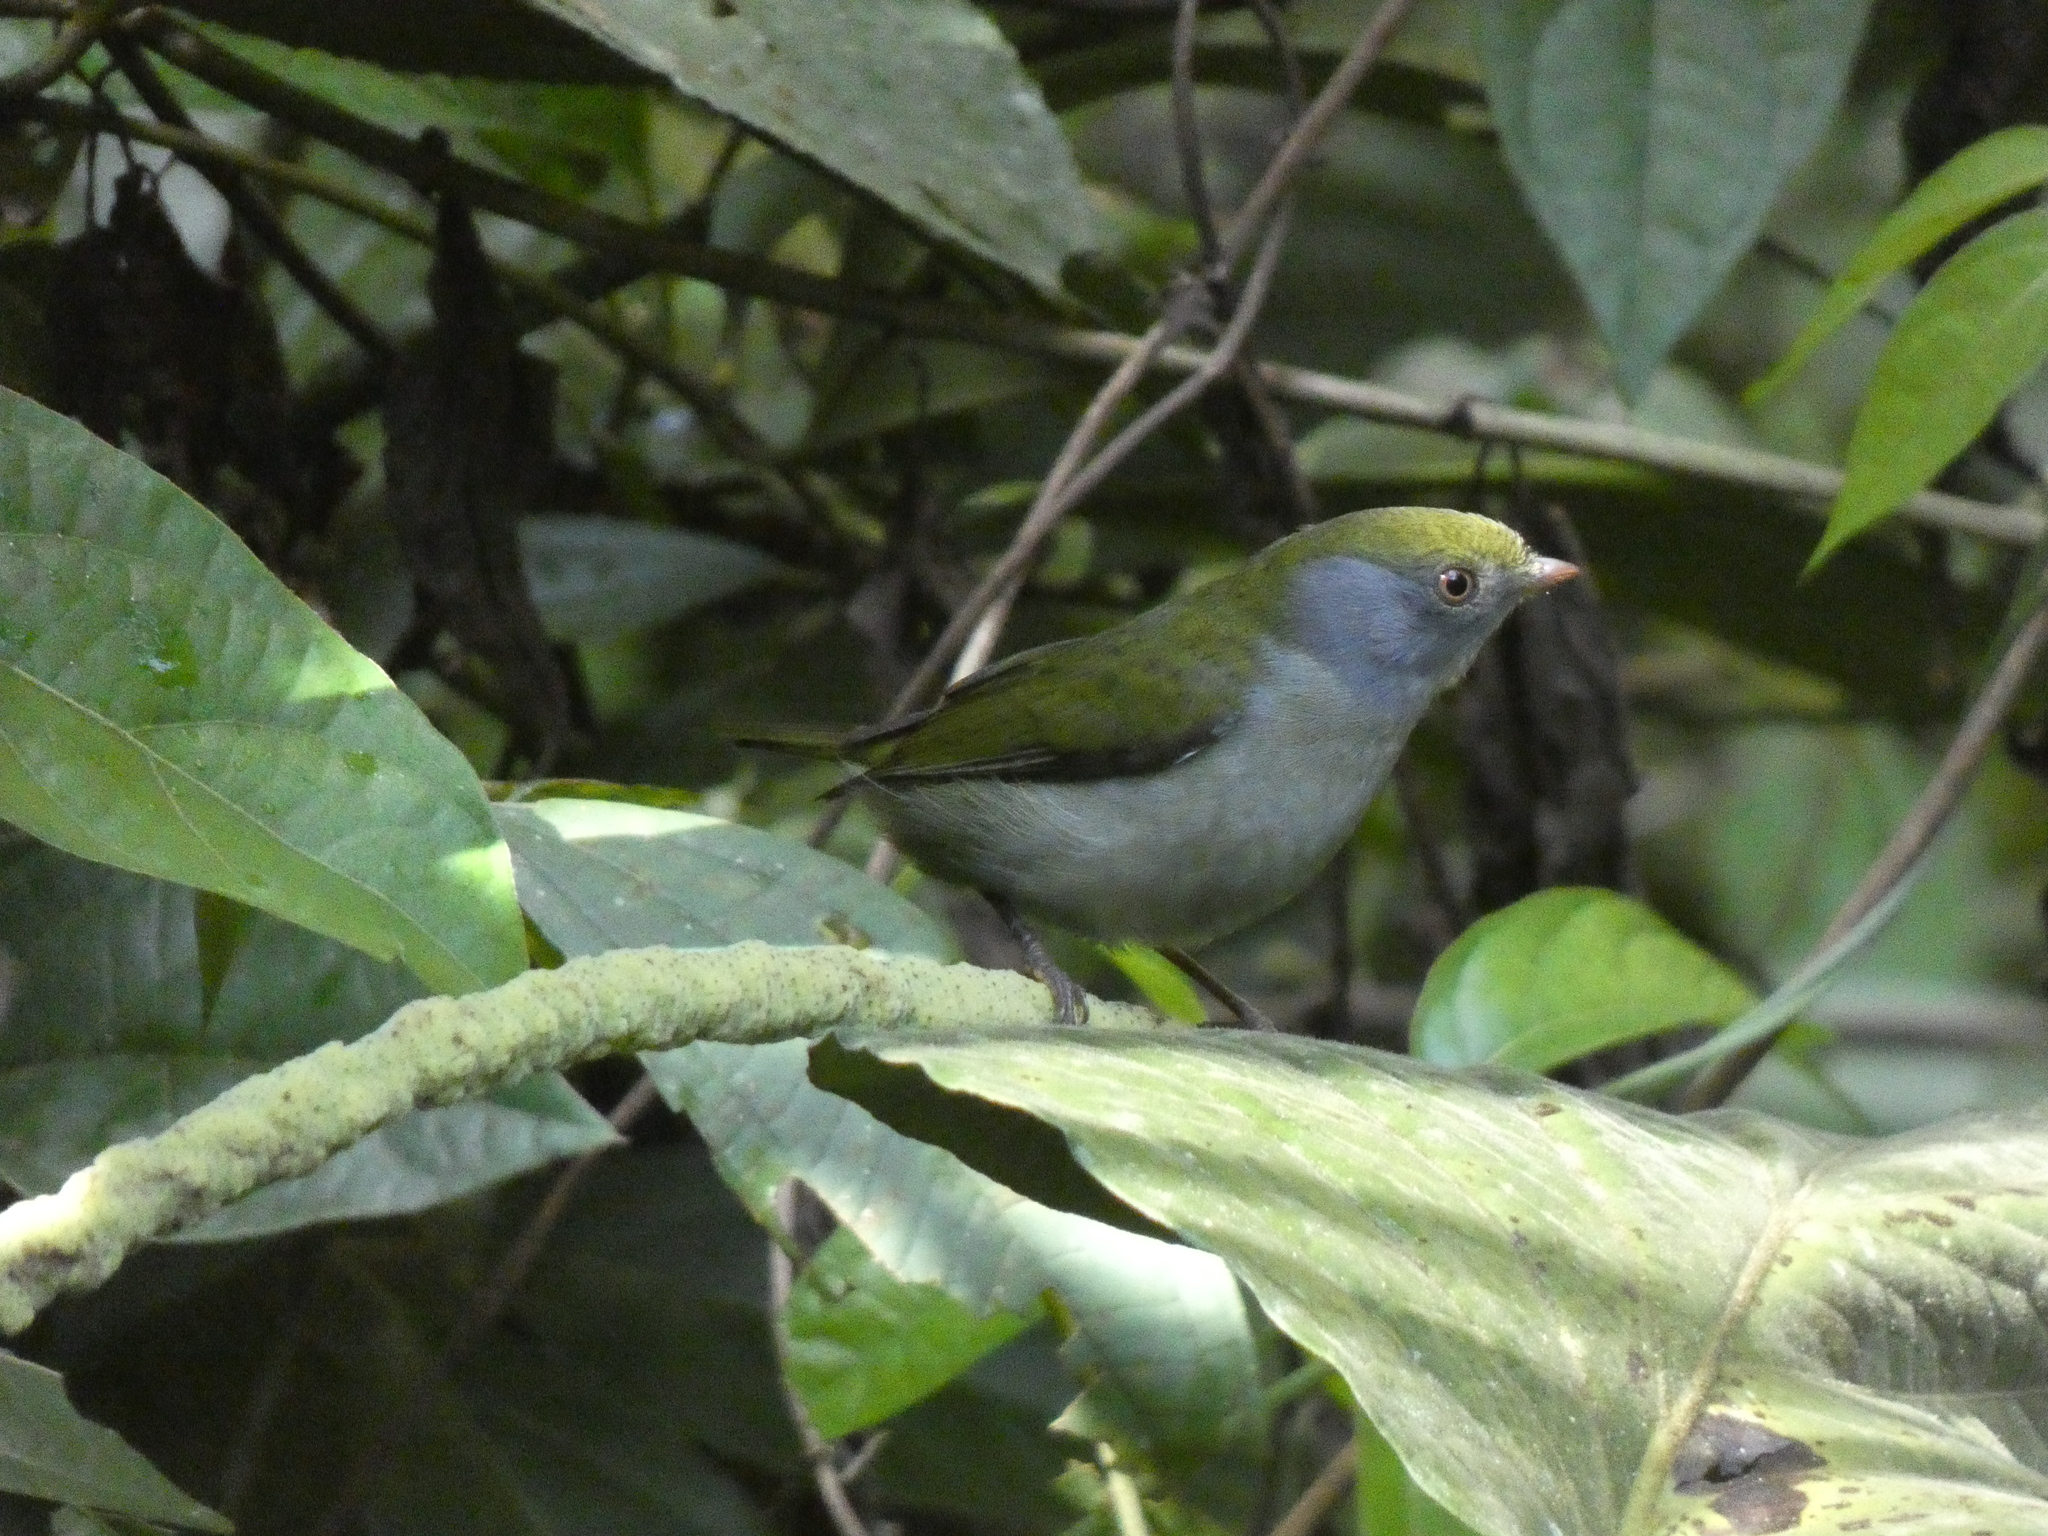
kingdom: Animalia
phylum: Chordata
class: Aves
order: Passeriformes
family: Pipridae
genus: Ilicura
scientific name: Ilicura militaris
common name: Pin-tailed manakin
